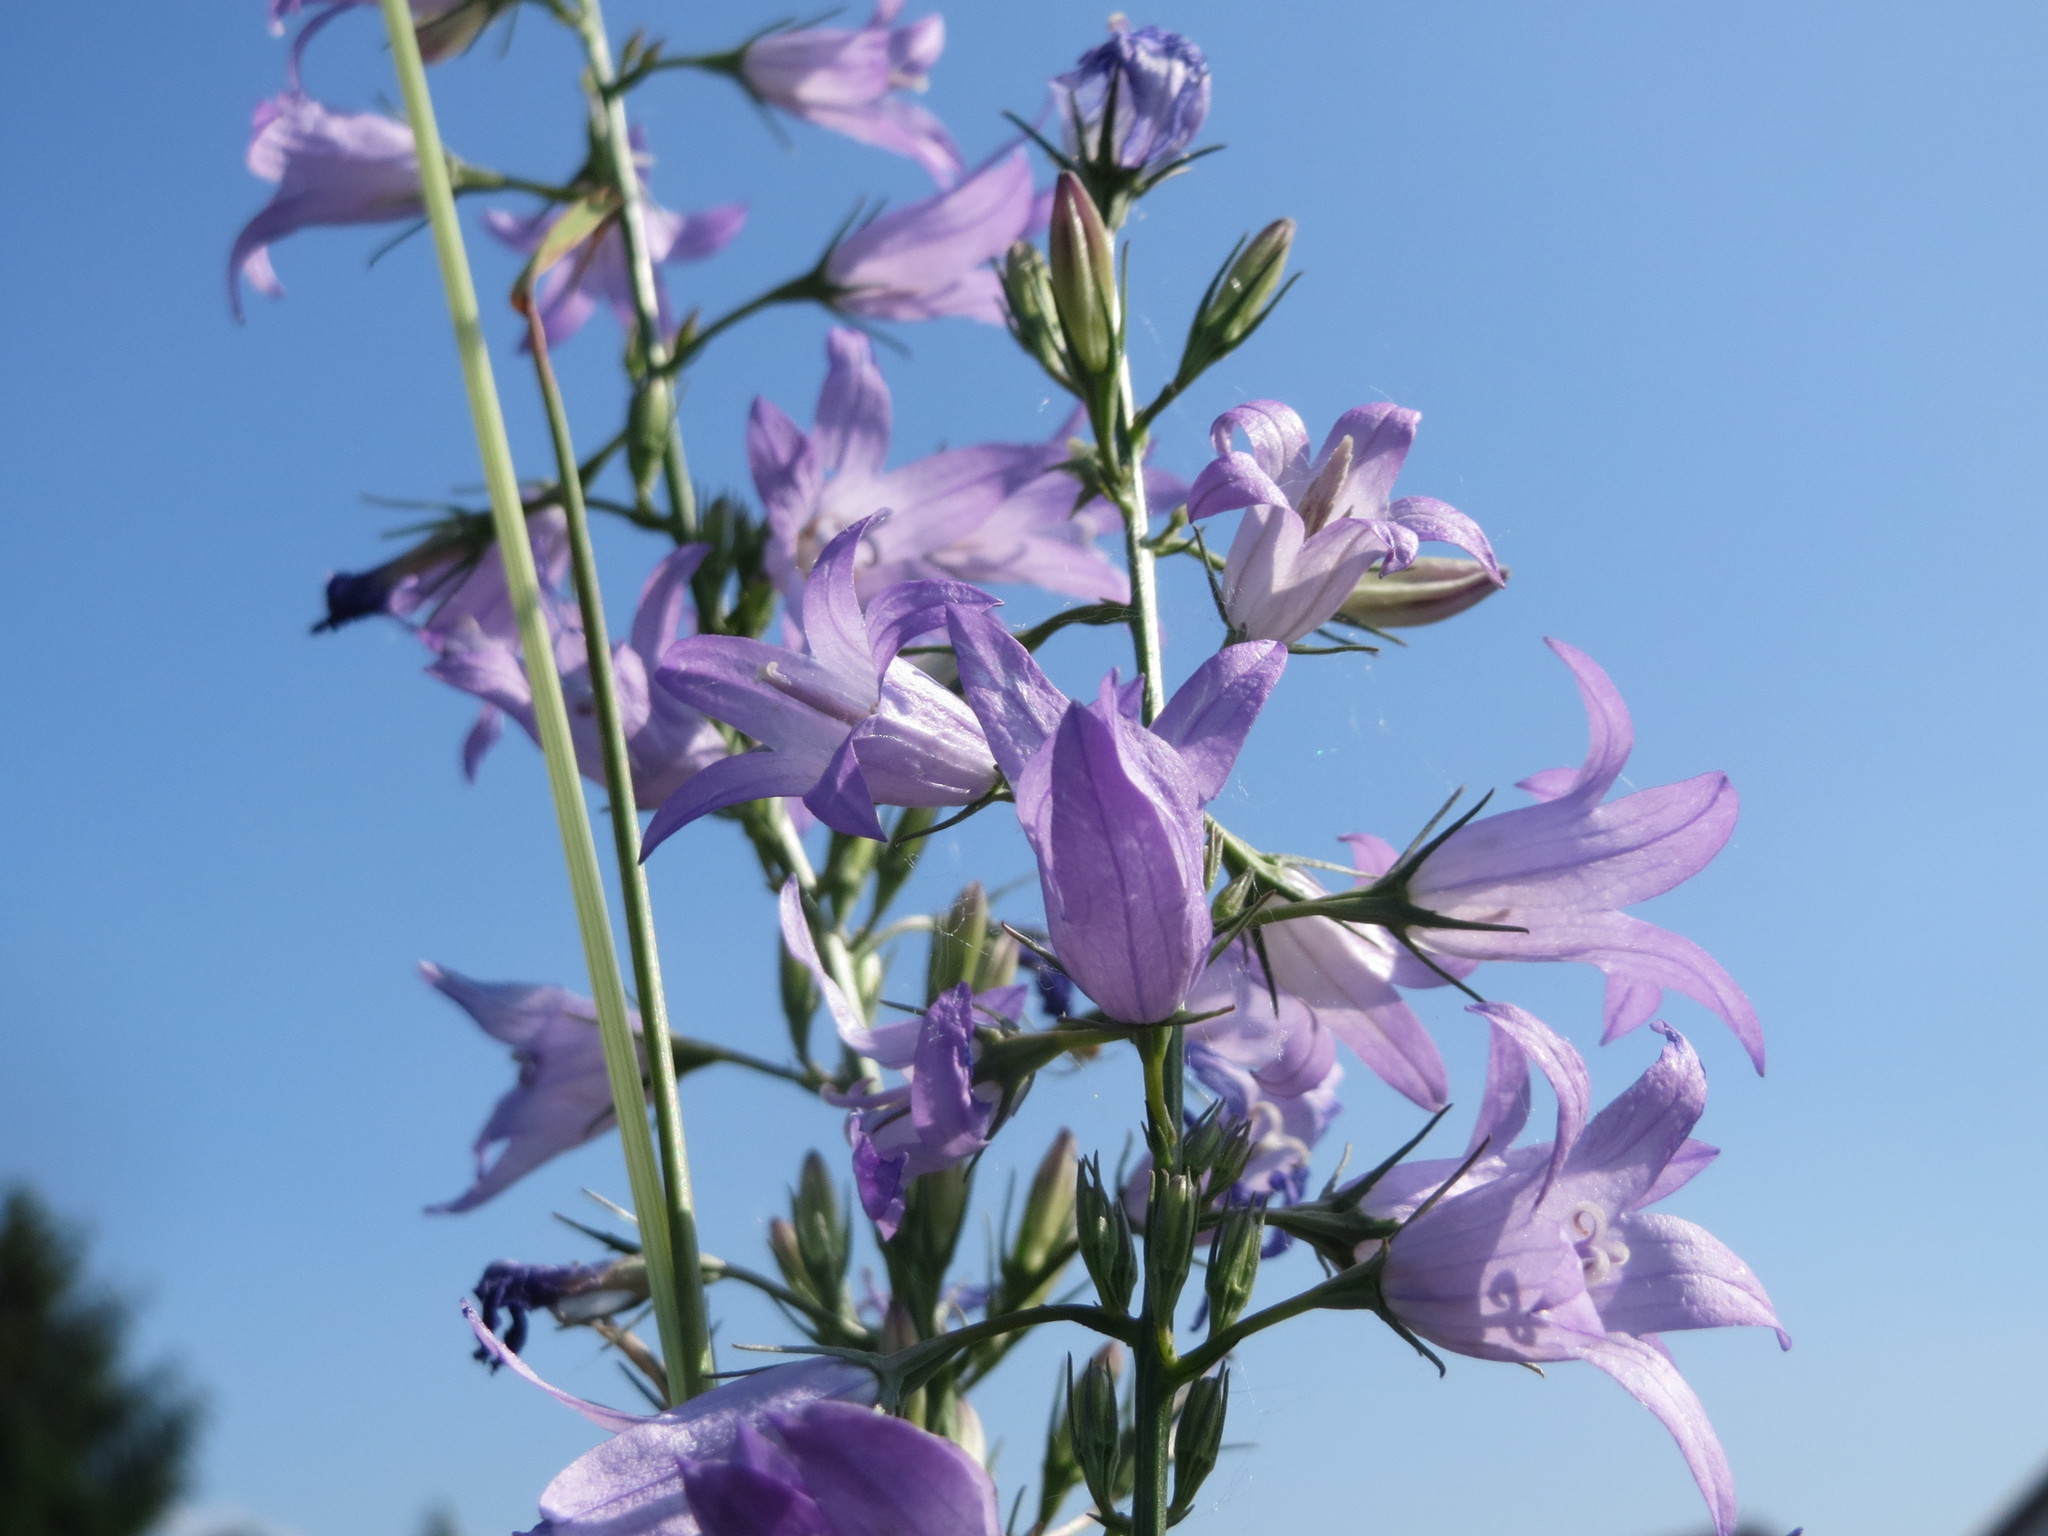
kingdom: Plantae
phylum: Tracheophyta
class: Magnoliopsida
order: Asterales
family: Campanulaceae
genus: Campanula
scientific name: Campanula rapunculus
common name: Rampion bellflower
